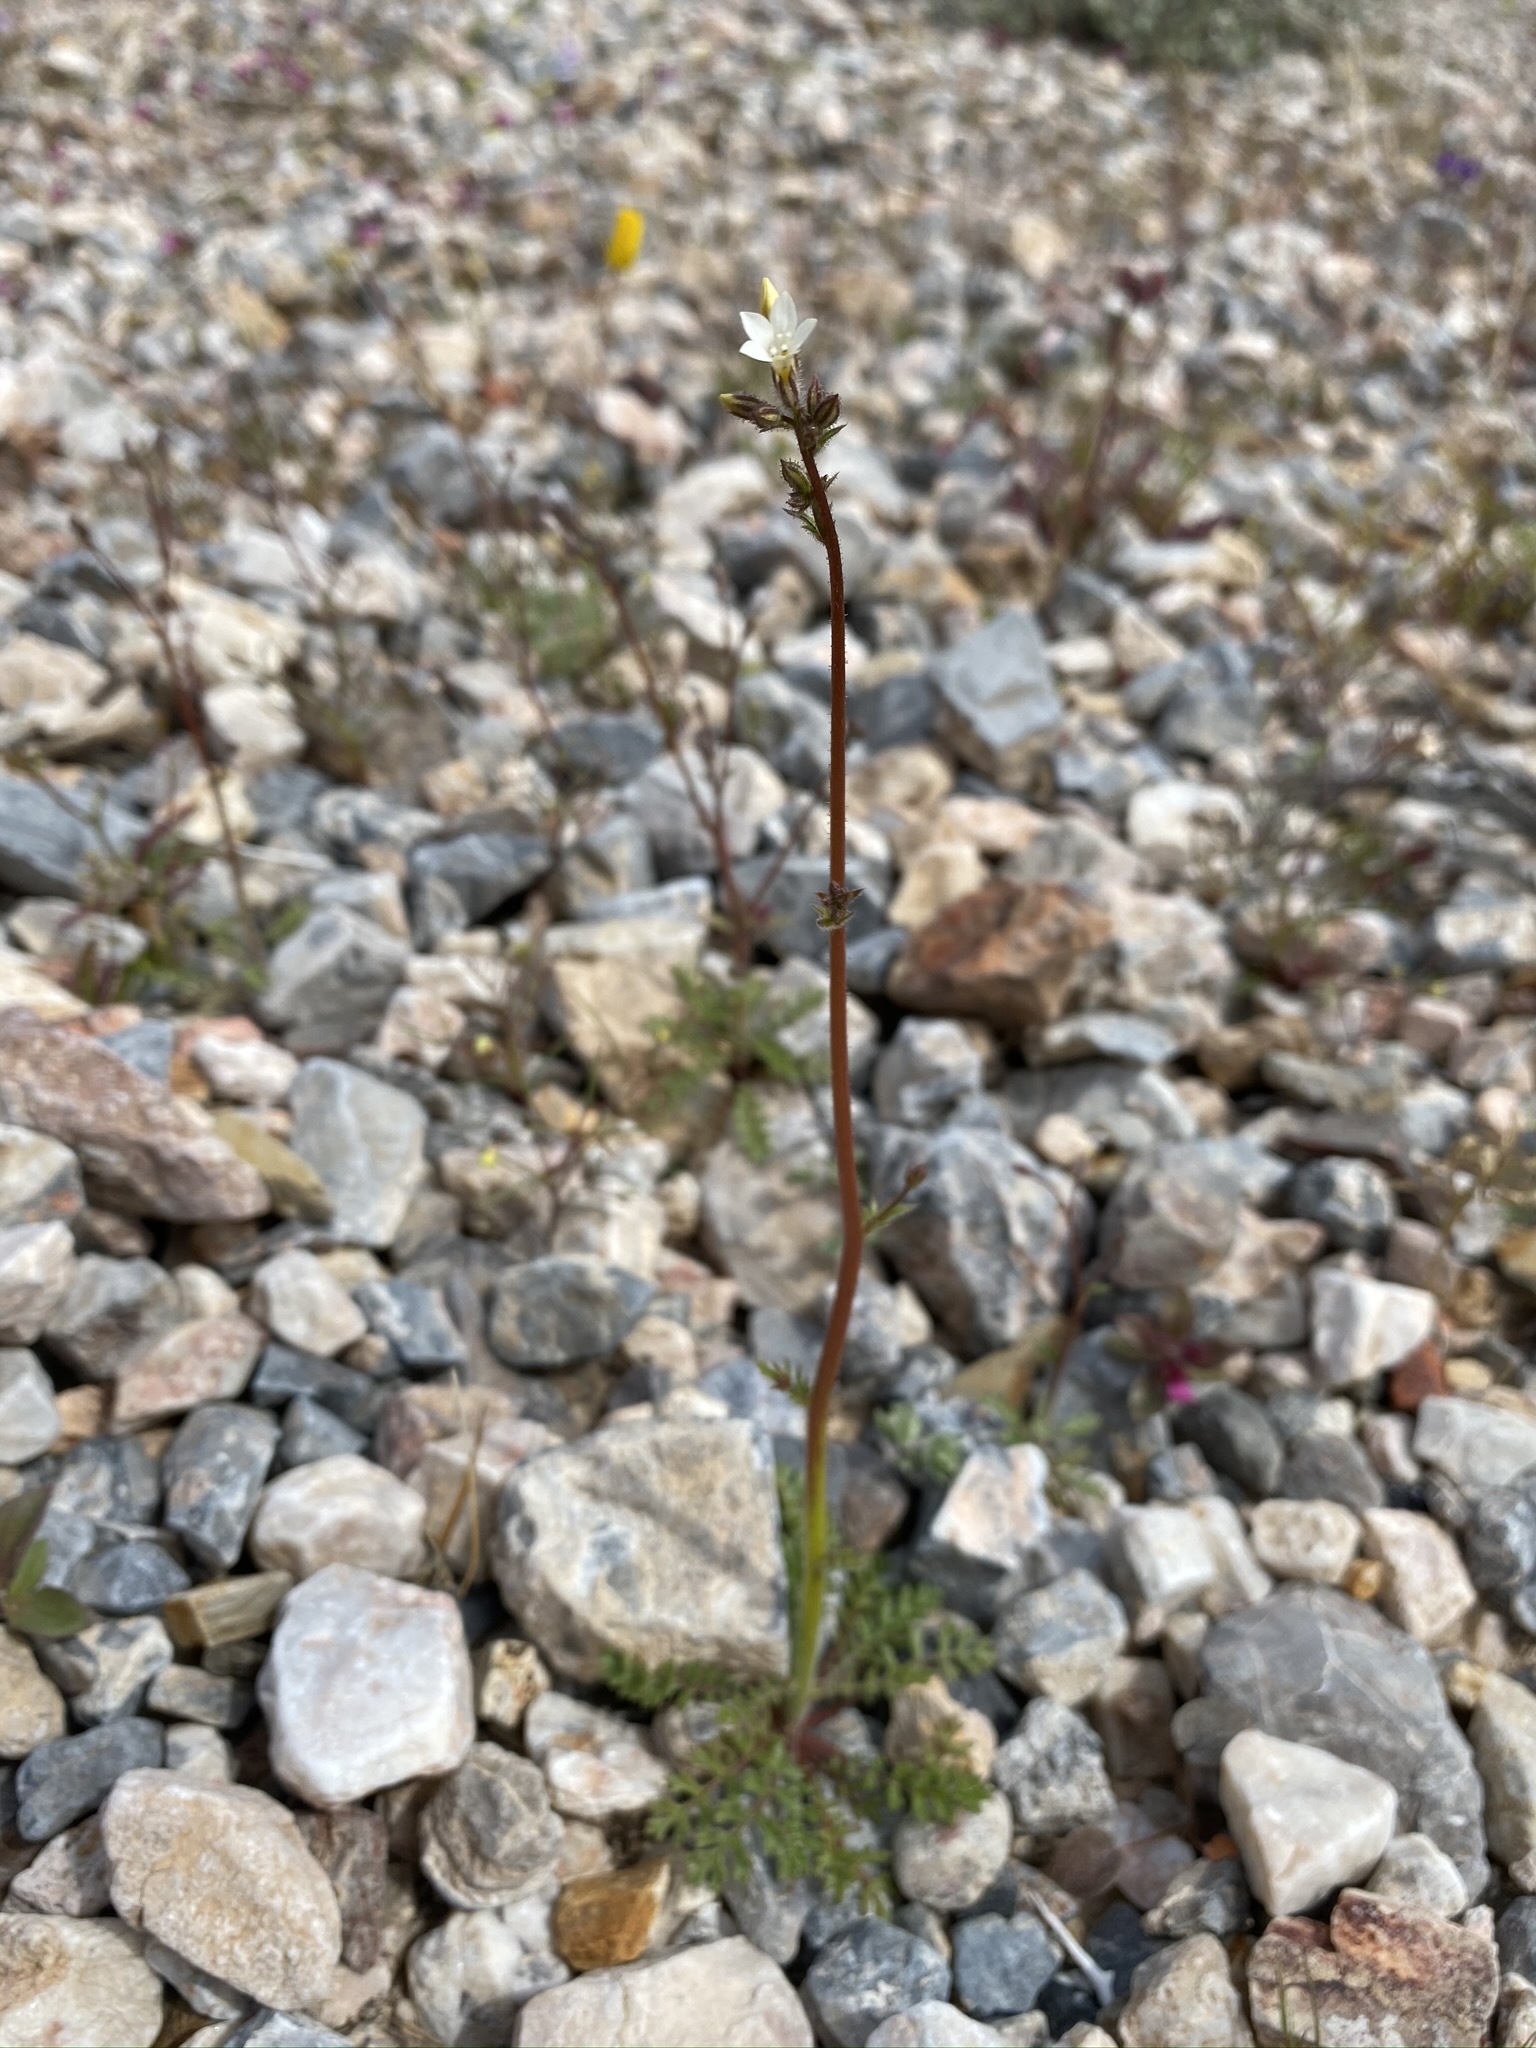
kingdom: Plantae
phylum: Tracheophyta
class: Magnoliopsida
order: Ericales
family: Polemoniaceae
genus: Gilia
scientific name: Gilia stellata
